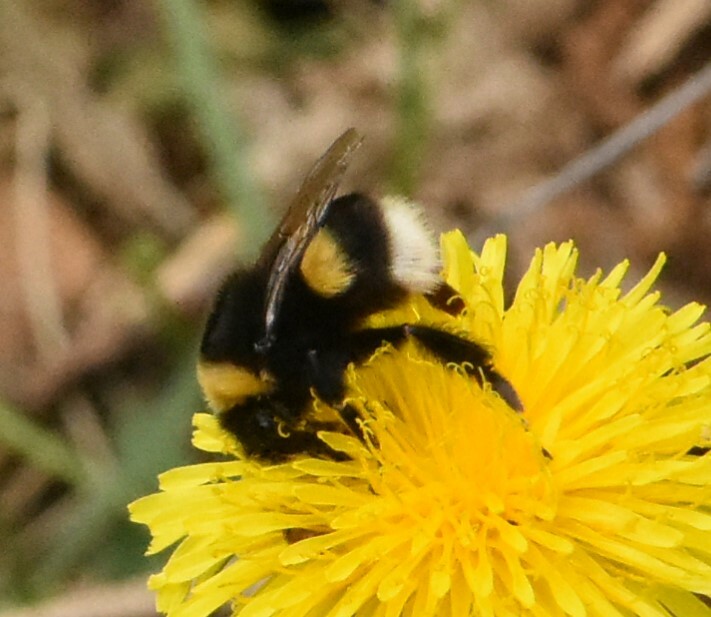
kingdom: Animalia
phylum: Arthropoda
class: Insecta
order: Hymenoptera
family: Apidae
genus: Bombus
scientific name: Bombus
